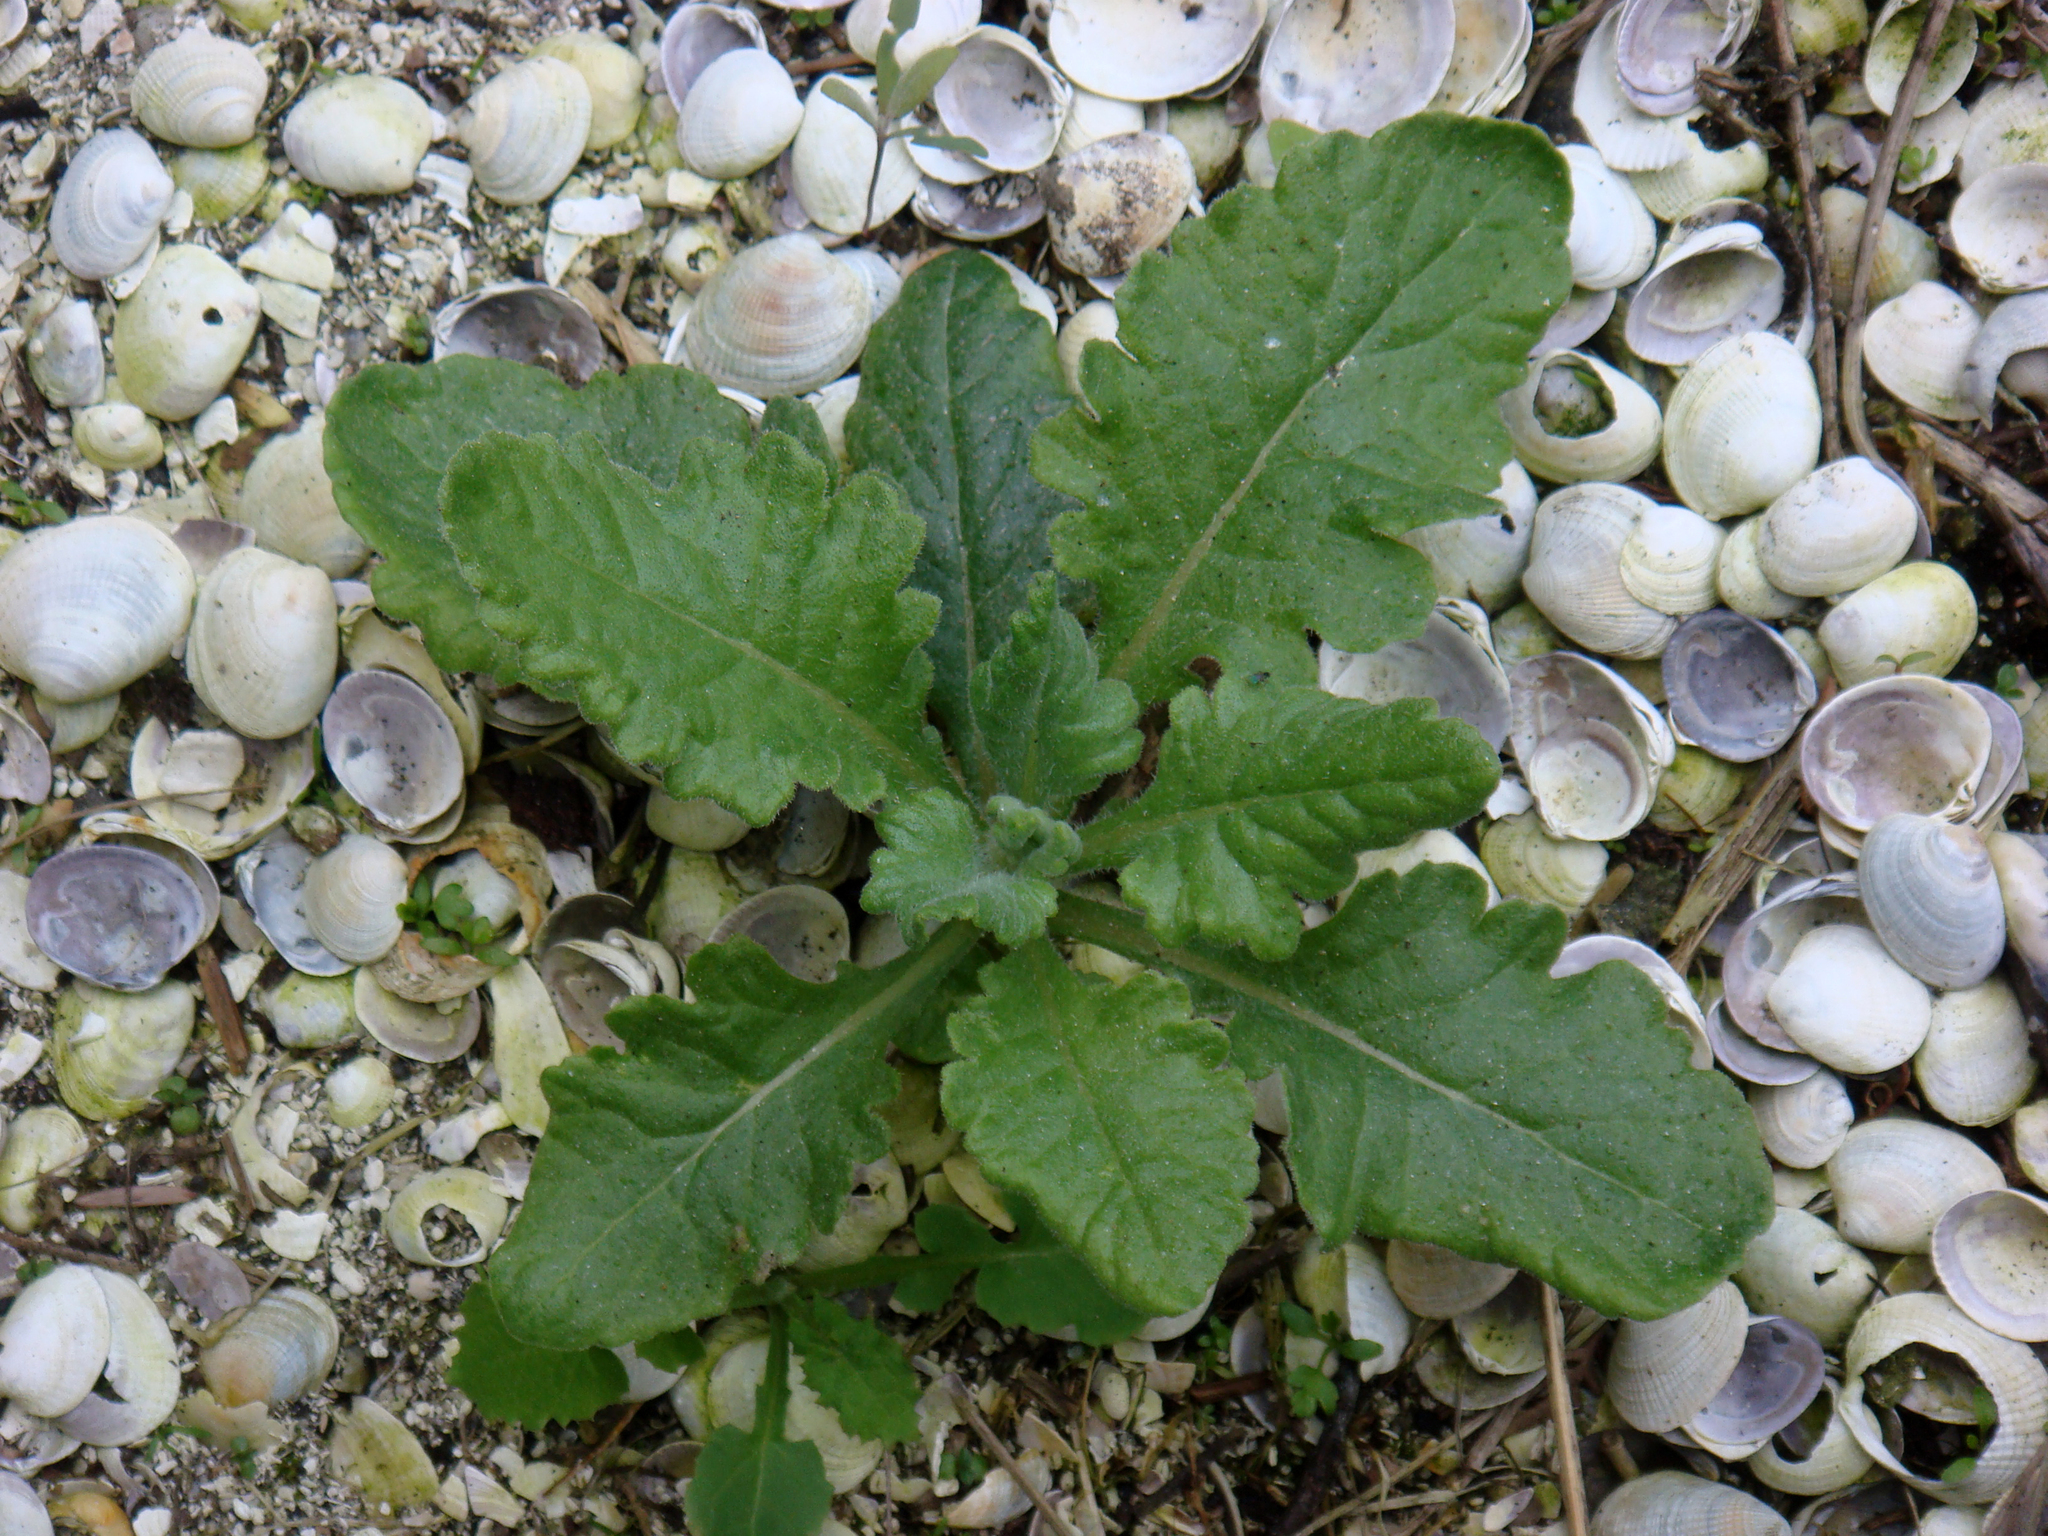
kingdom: Plantae
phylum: Tracheophyta
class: Magnoliopsida
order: Asterales
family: Asteraceae
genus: Senecio
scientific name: Senecio glomeratus
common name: Cutleaf burnweed
